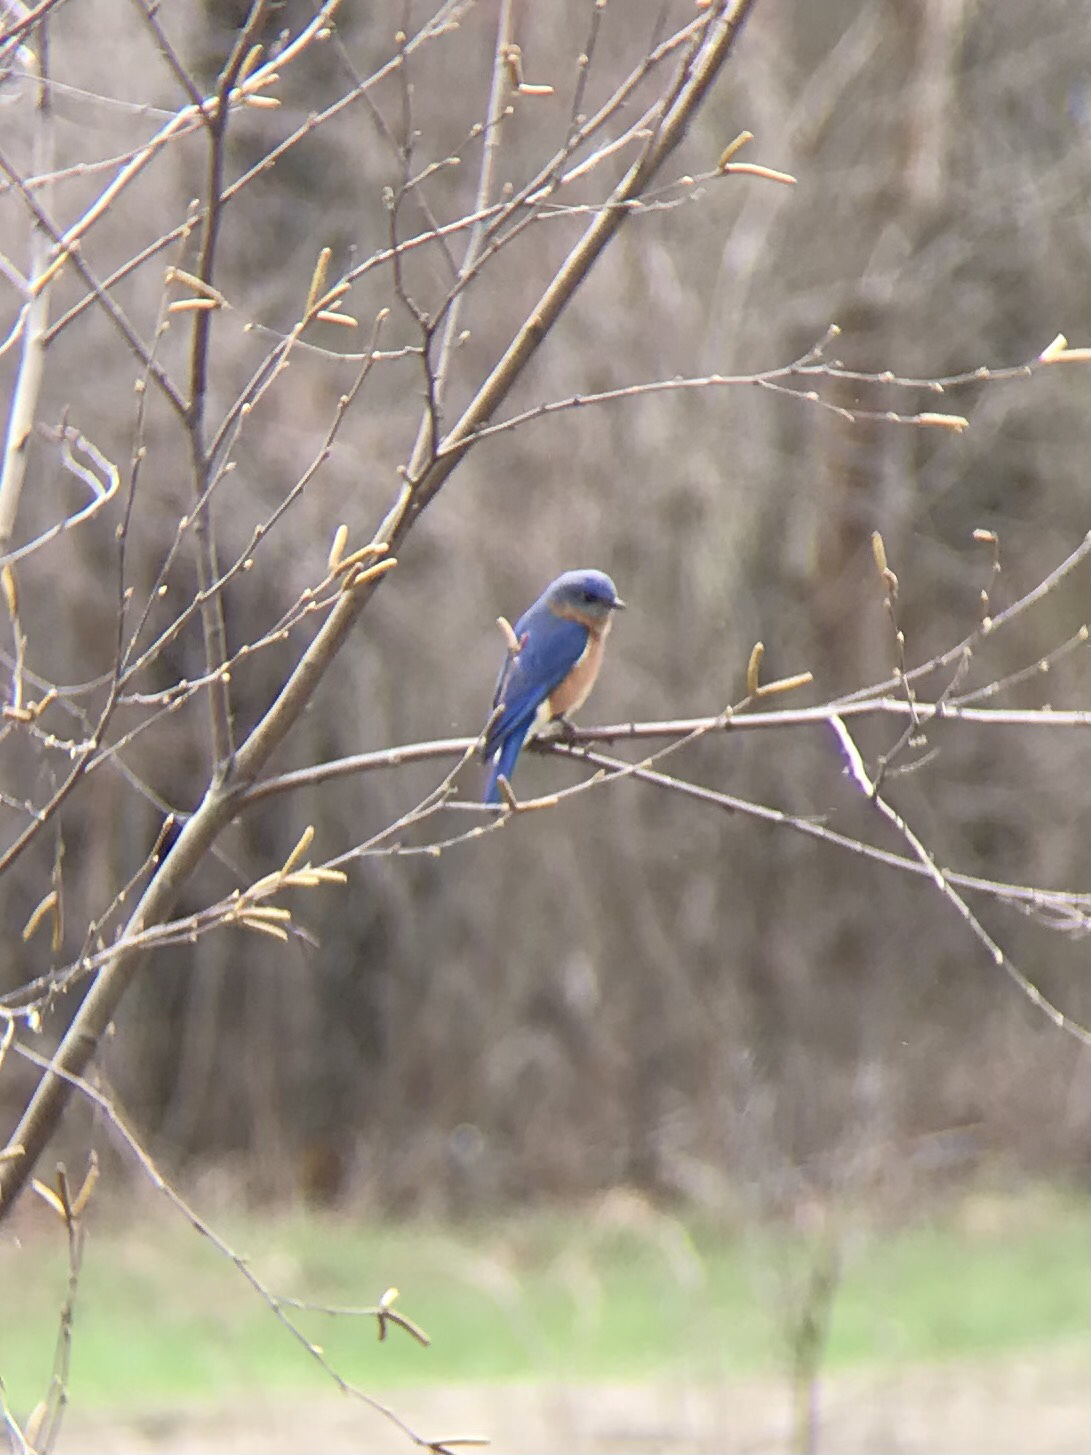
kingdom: Animalia
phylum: Chordata
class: Aves
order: Passeriformes
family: Turdidae
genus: Sialia
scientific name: Sialia sialis
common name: Eastern bluebird
